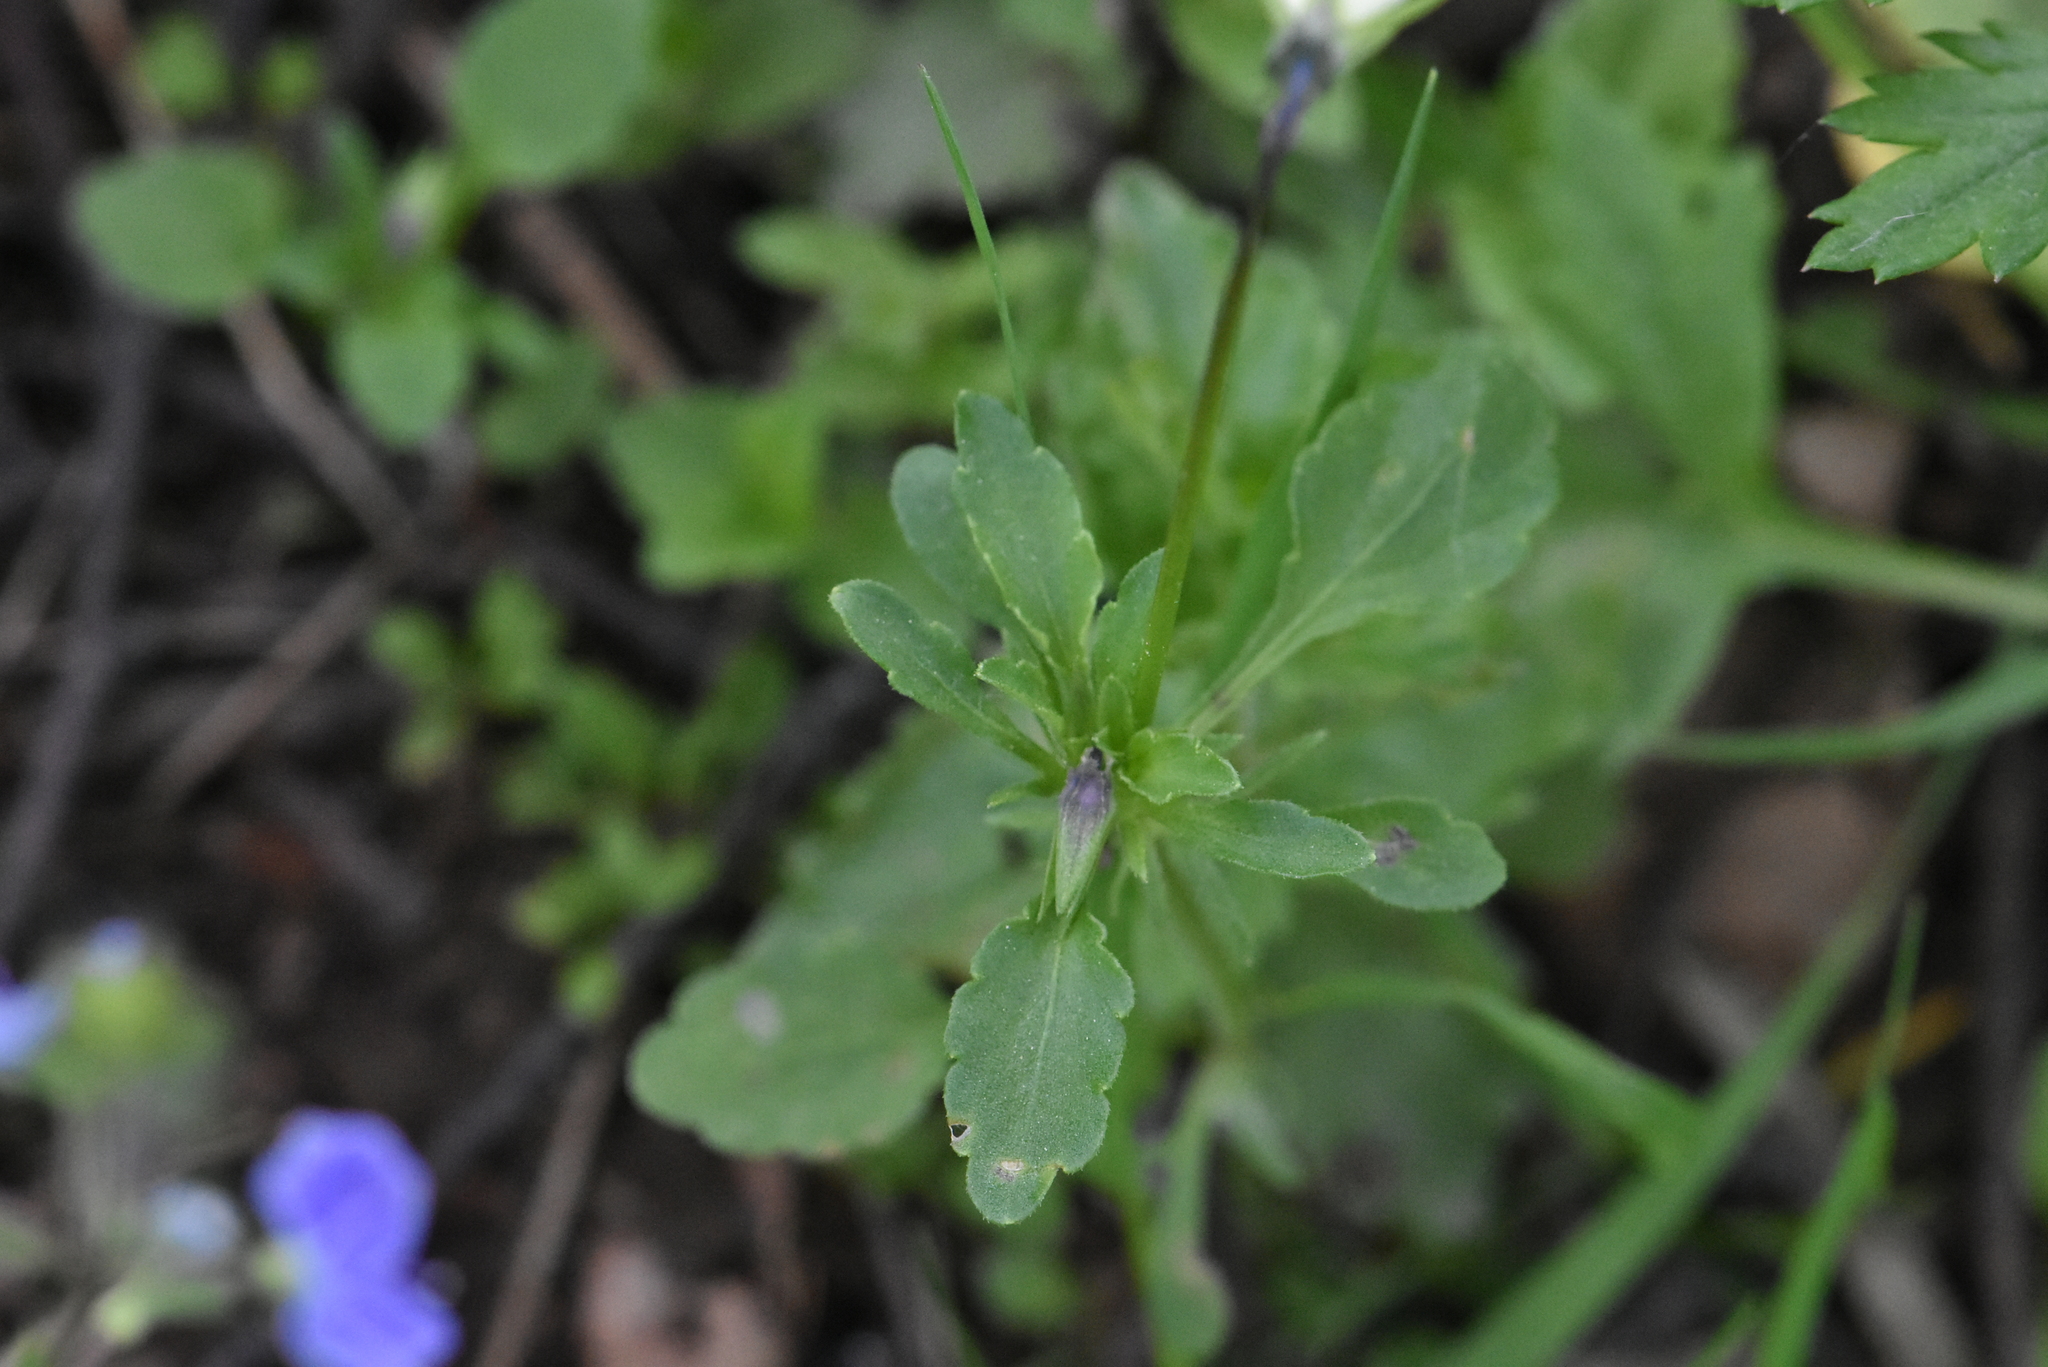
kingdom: Plantae
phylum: Tracheophyta
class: Magnoliopsida
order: Malpighiales
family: Violaceae
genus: Viola
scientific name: Viola arvensis
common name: Field pansy
